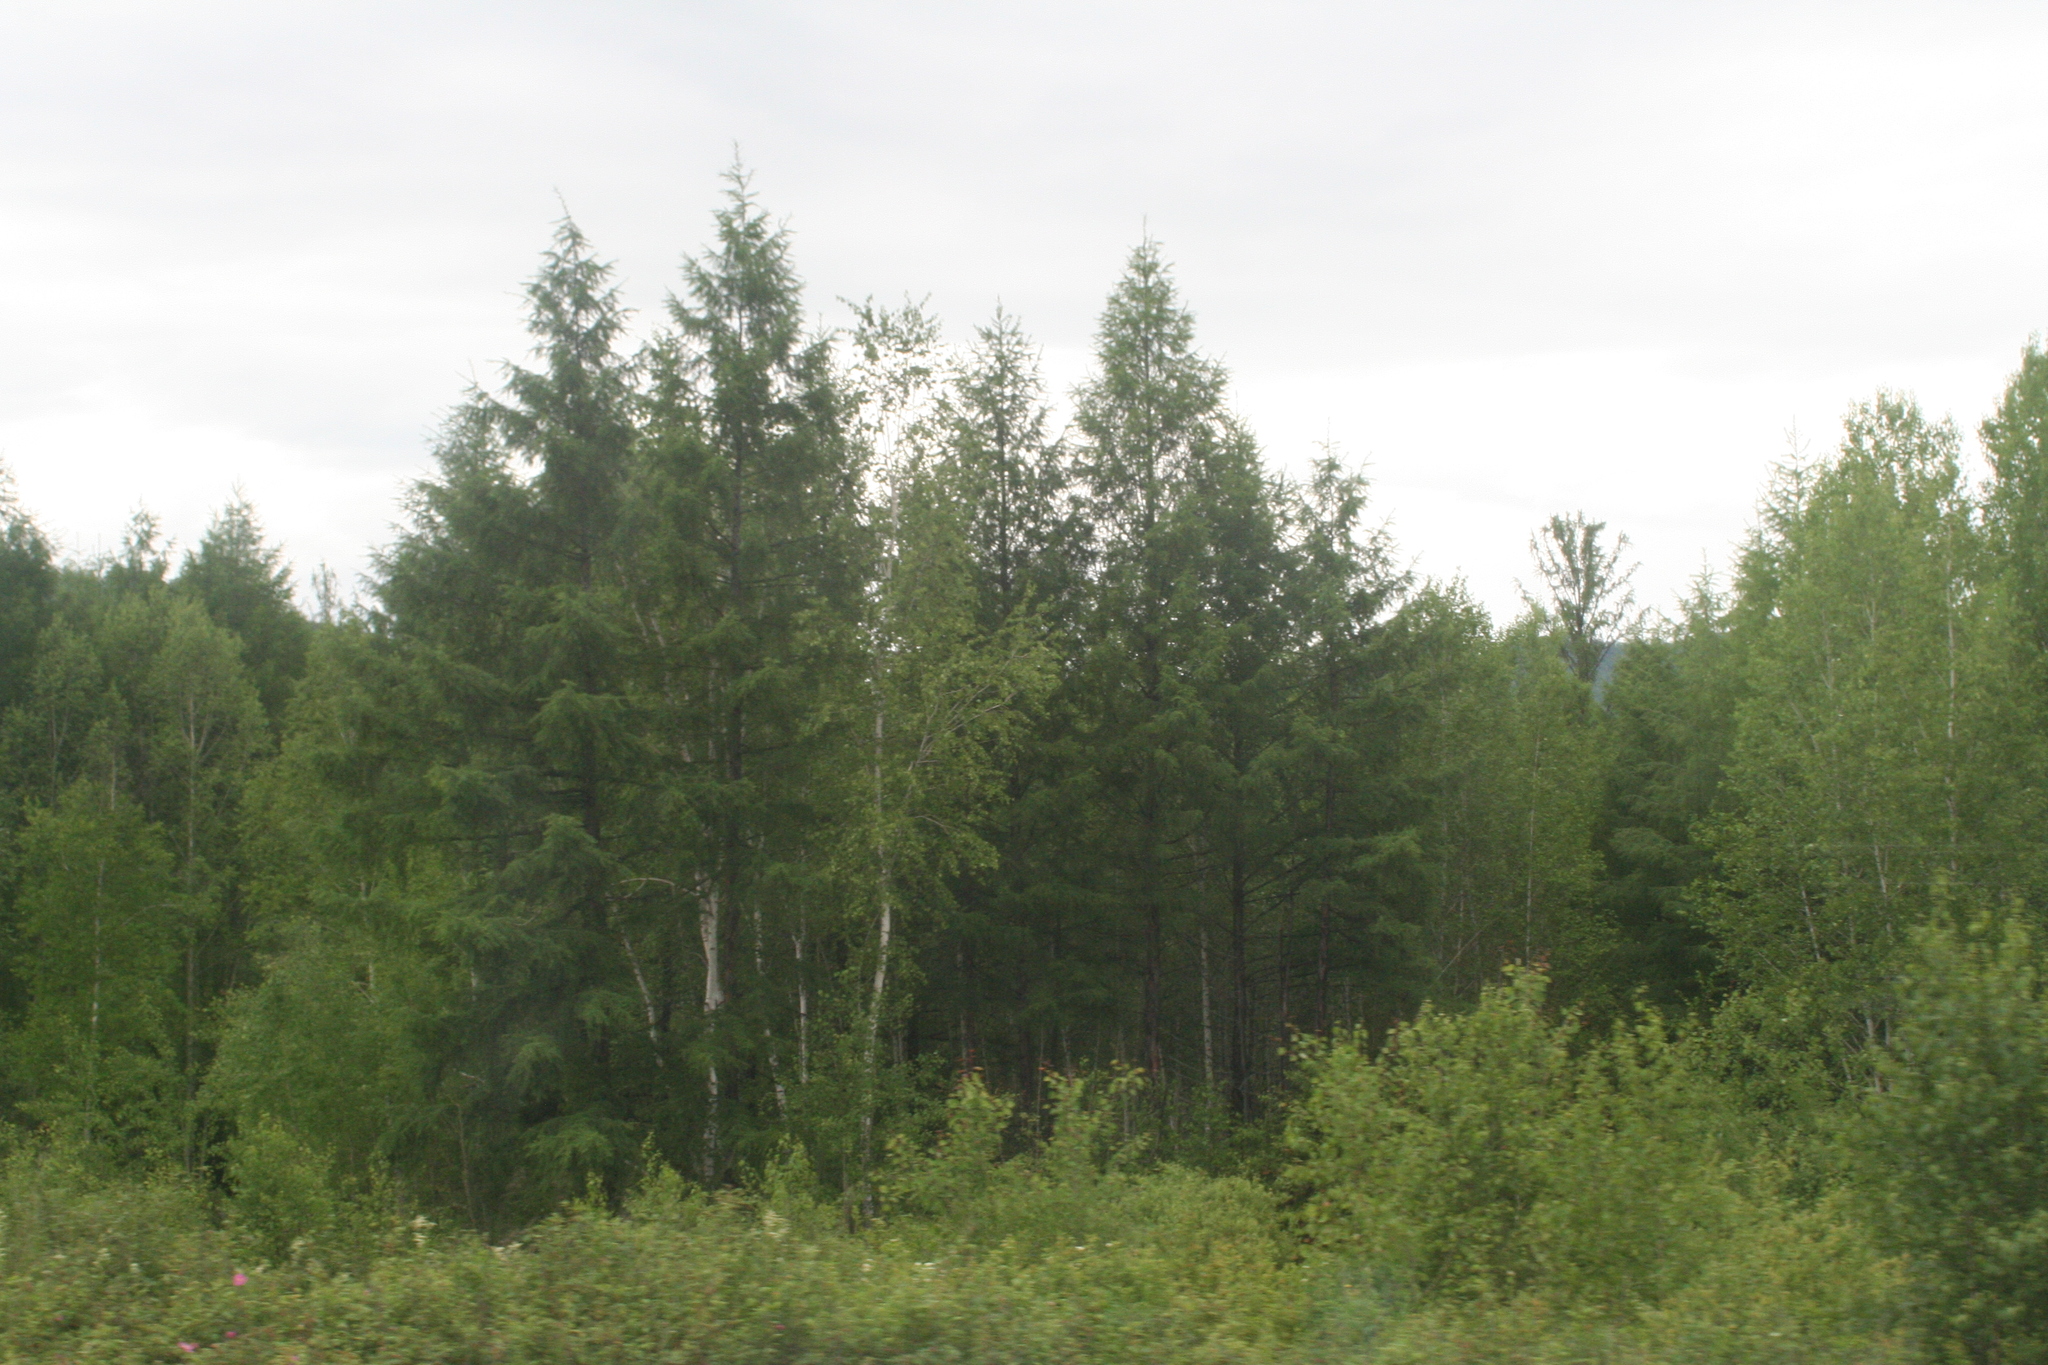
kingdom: Plantae
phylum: Tracheophyta
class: Pinopsida
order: Pinales
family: Pinaceae
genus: Larix
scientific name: Larix gmelinii
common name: Dahurian larch
